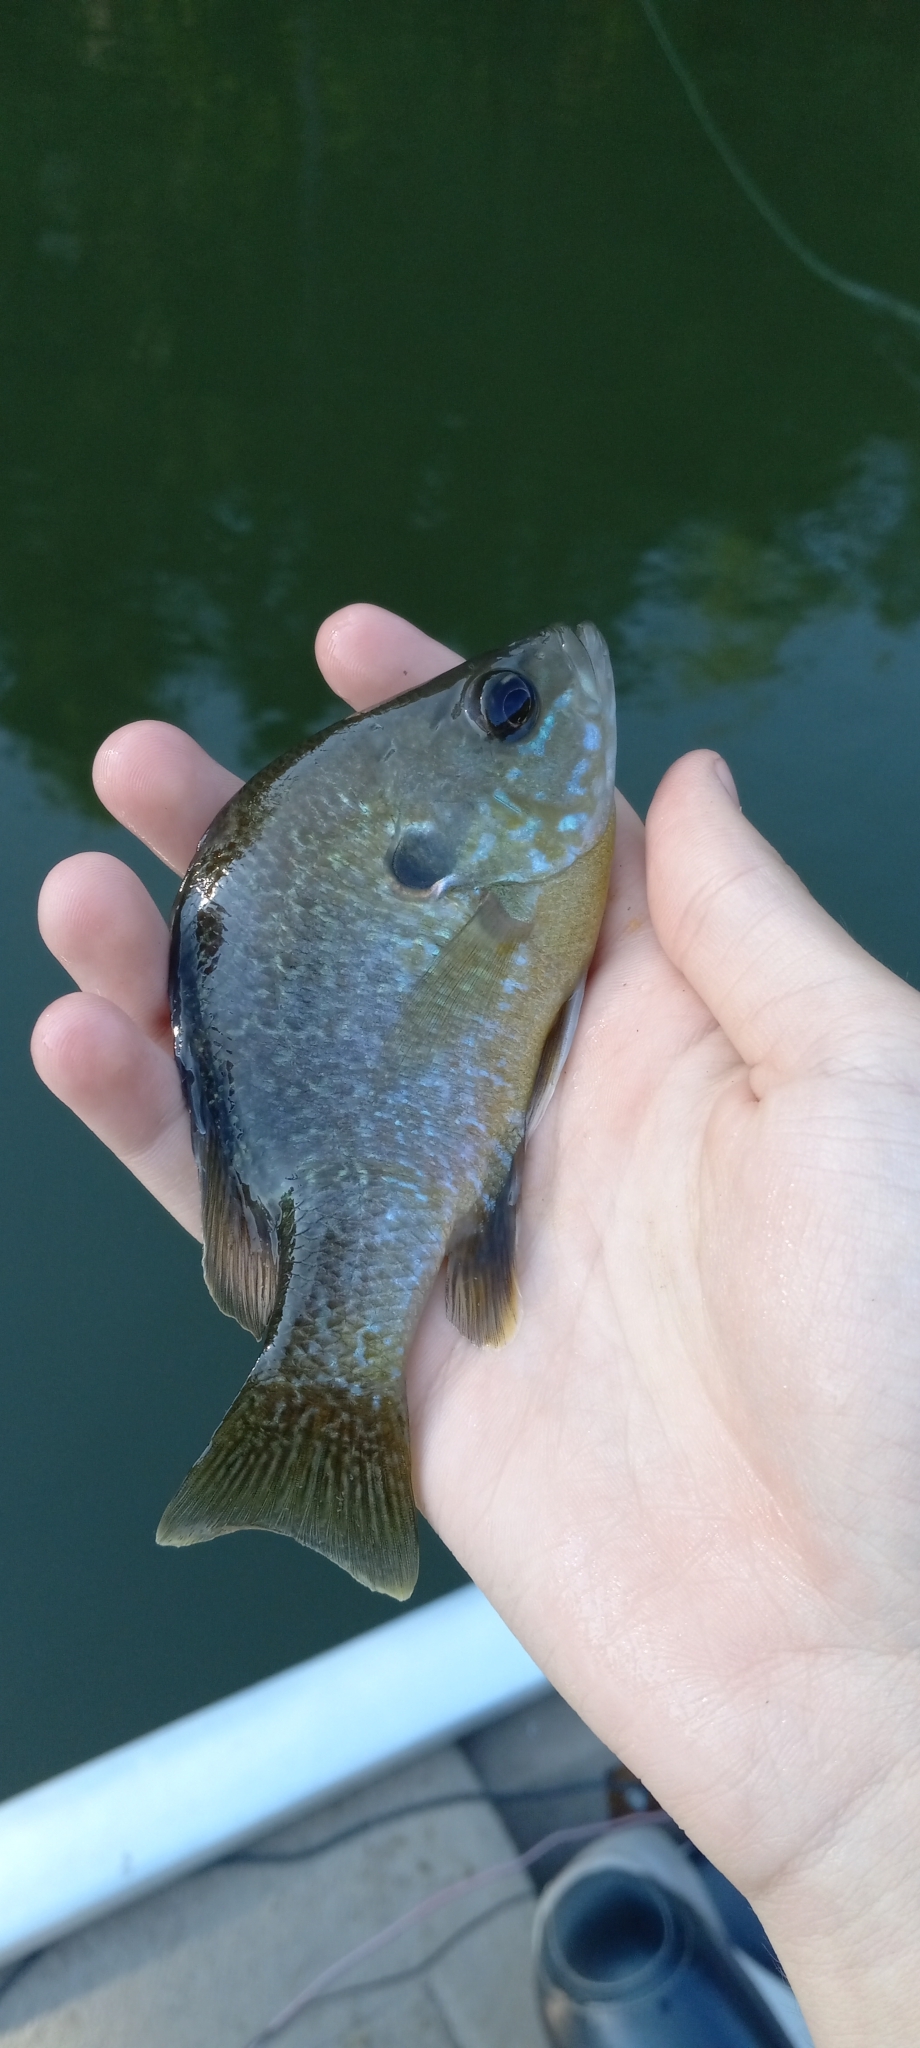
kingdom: Animalia
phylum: Chordata
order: Perciformes
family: Centrarchidae
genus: Lepomis
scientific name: Lepomis
